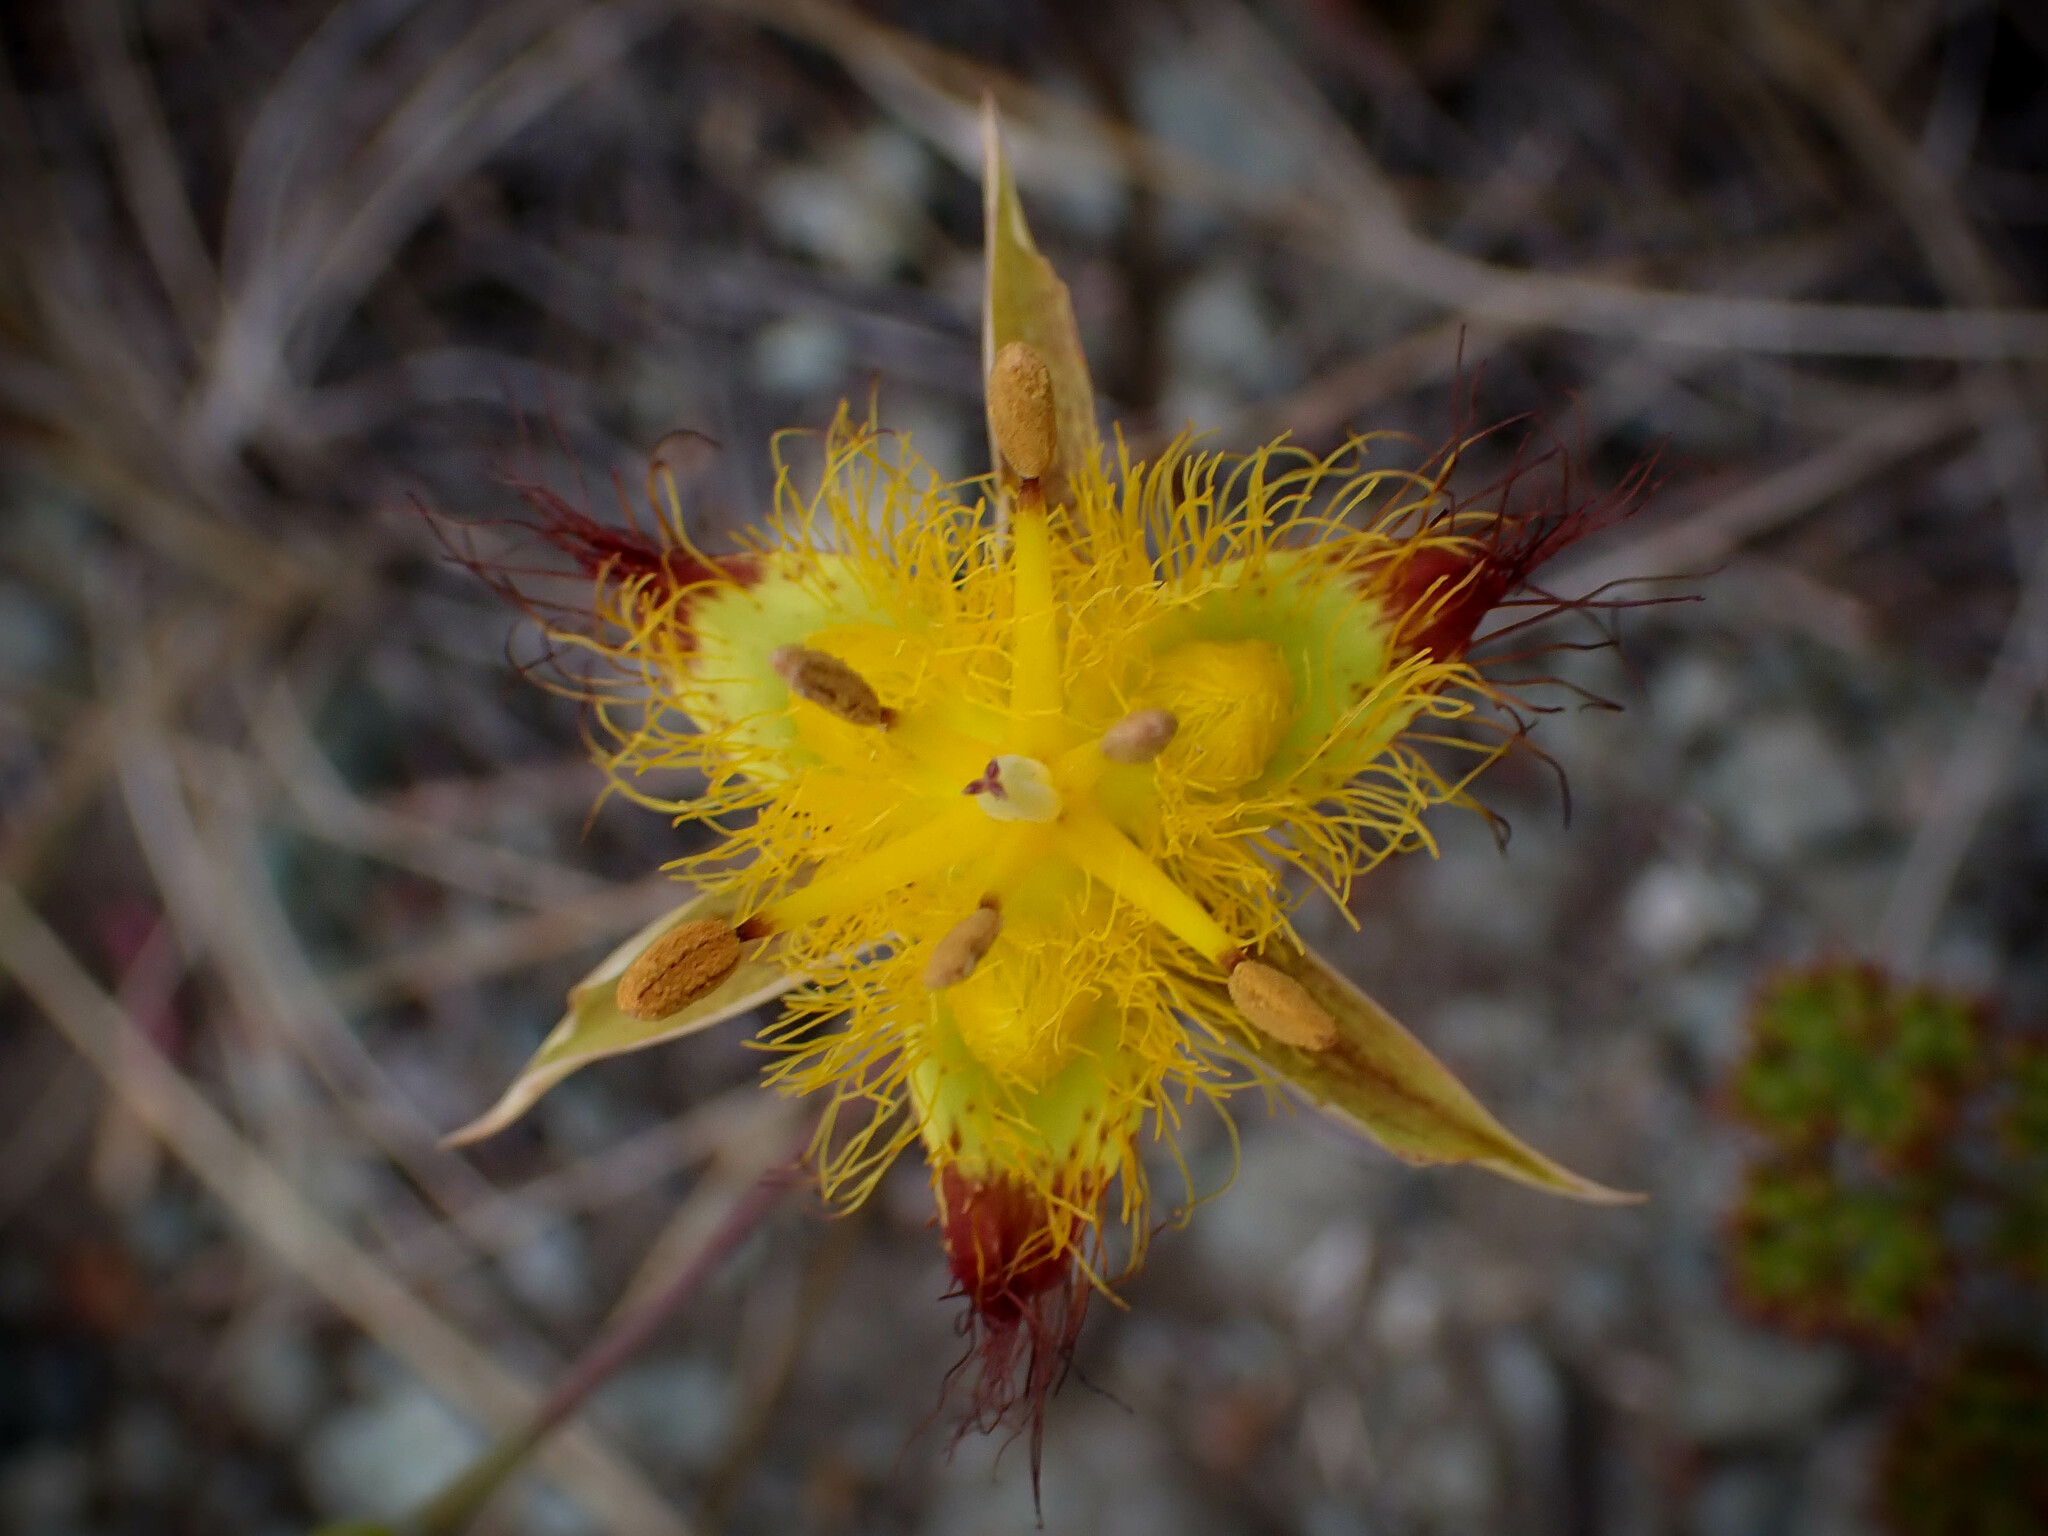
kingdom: Plantae
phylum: Tracheophyta
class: Liliopsida
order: Liliales
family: Liliaceae
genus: Calochortus
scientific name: Calochortus obispoensis
